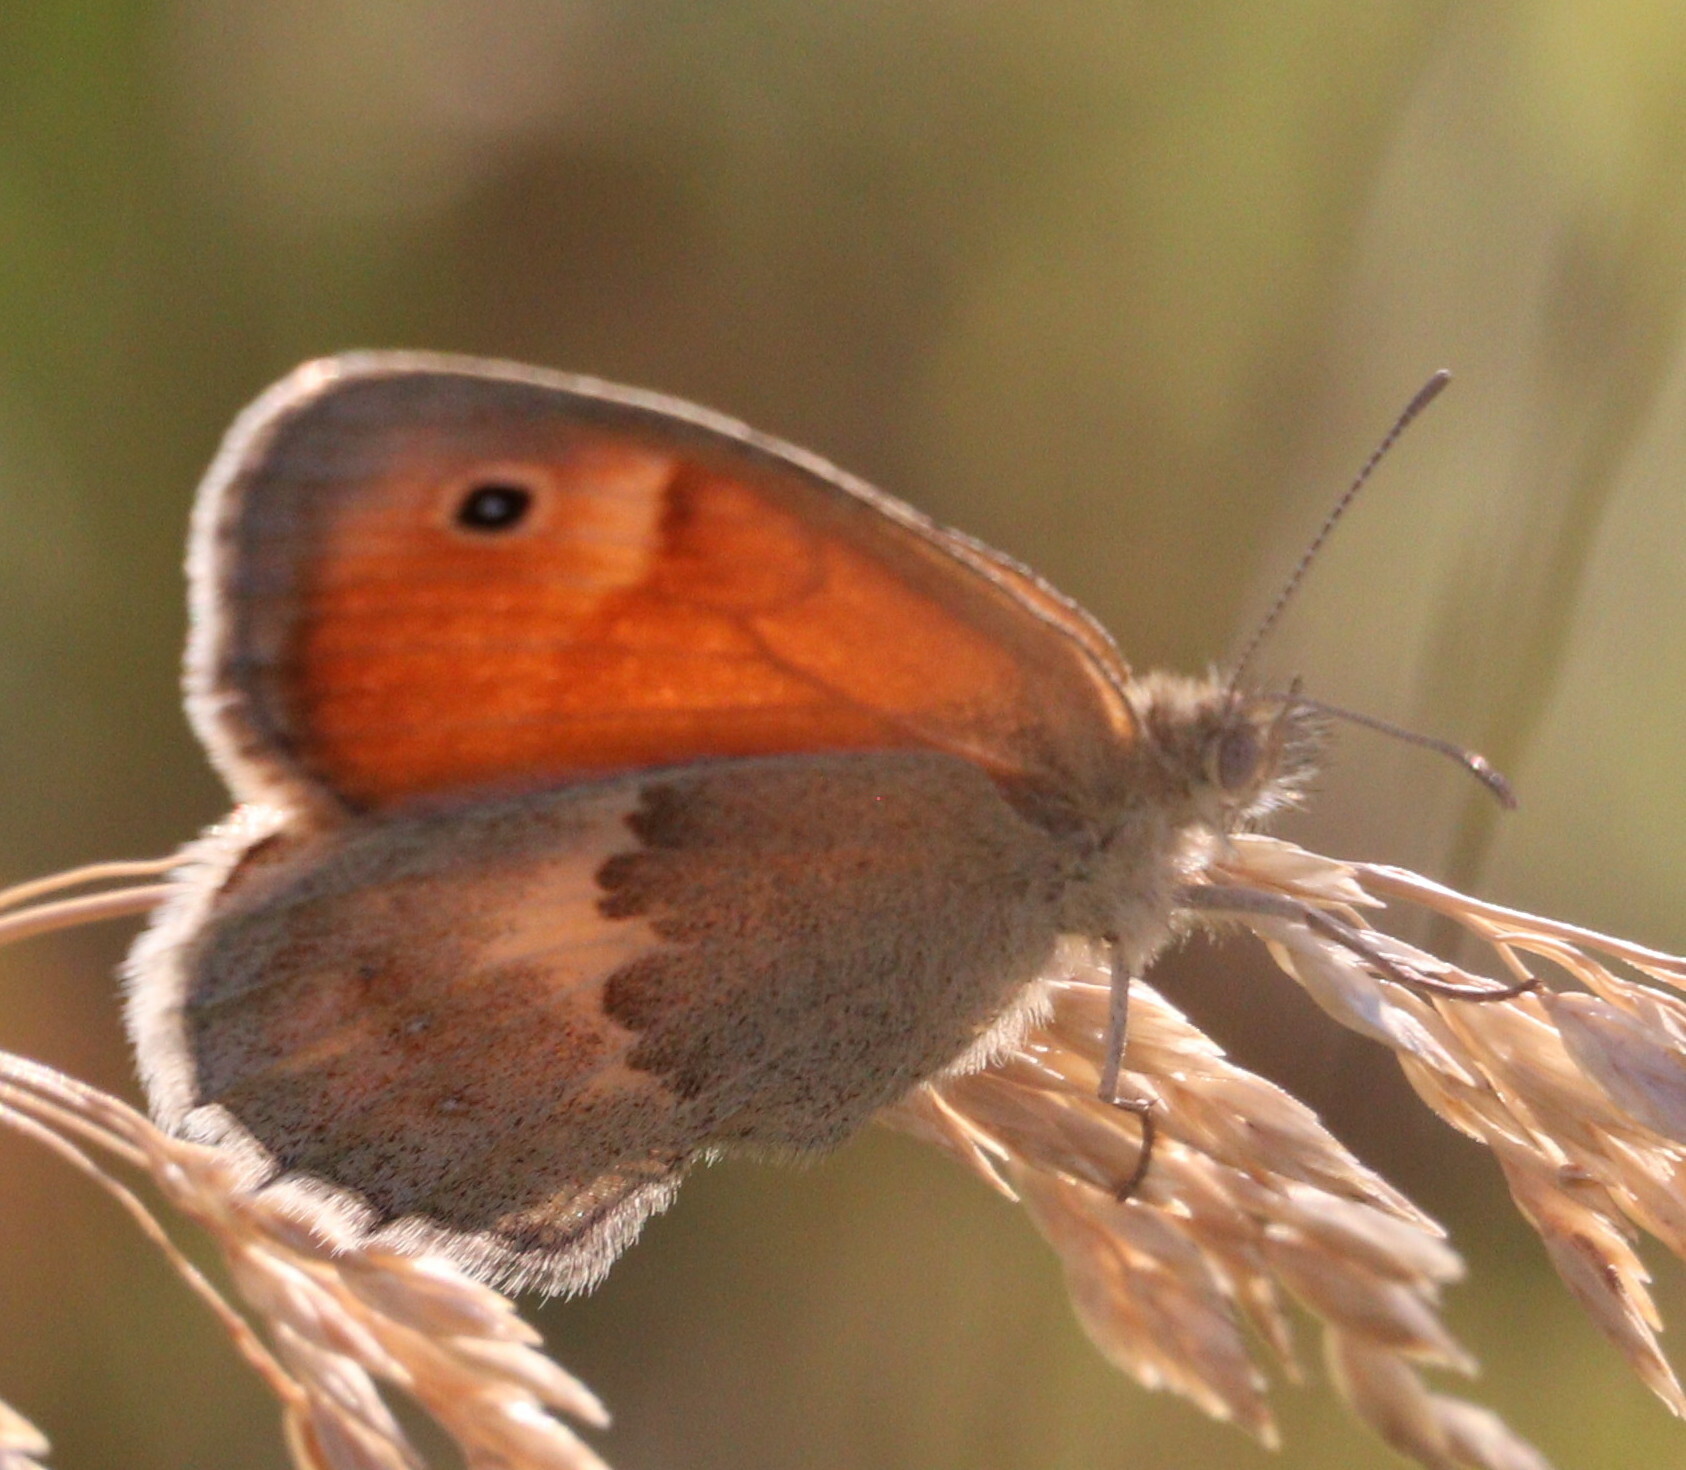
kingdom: Animalia
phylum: Arthropoda
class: Insecta
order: Lepidoptera
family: Nymphalidae
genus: Coenonympha
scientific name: Coenonympha pamphilus
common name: Small heath
